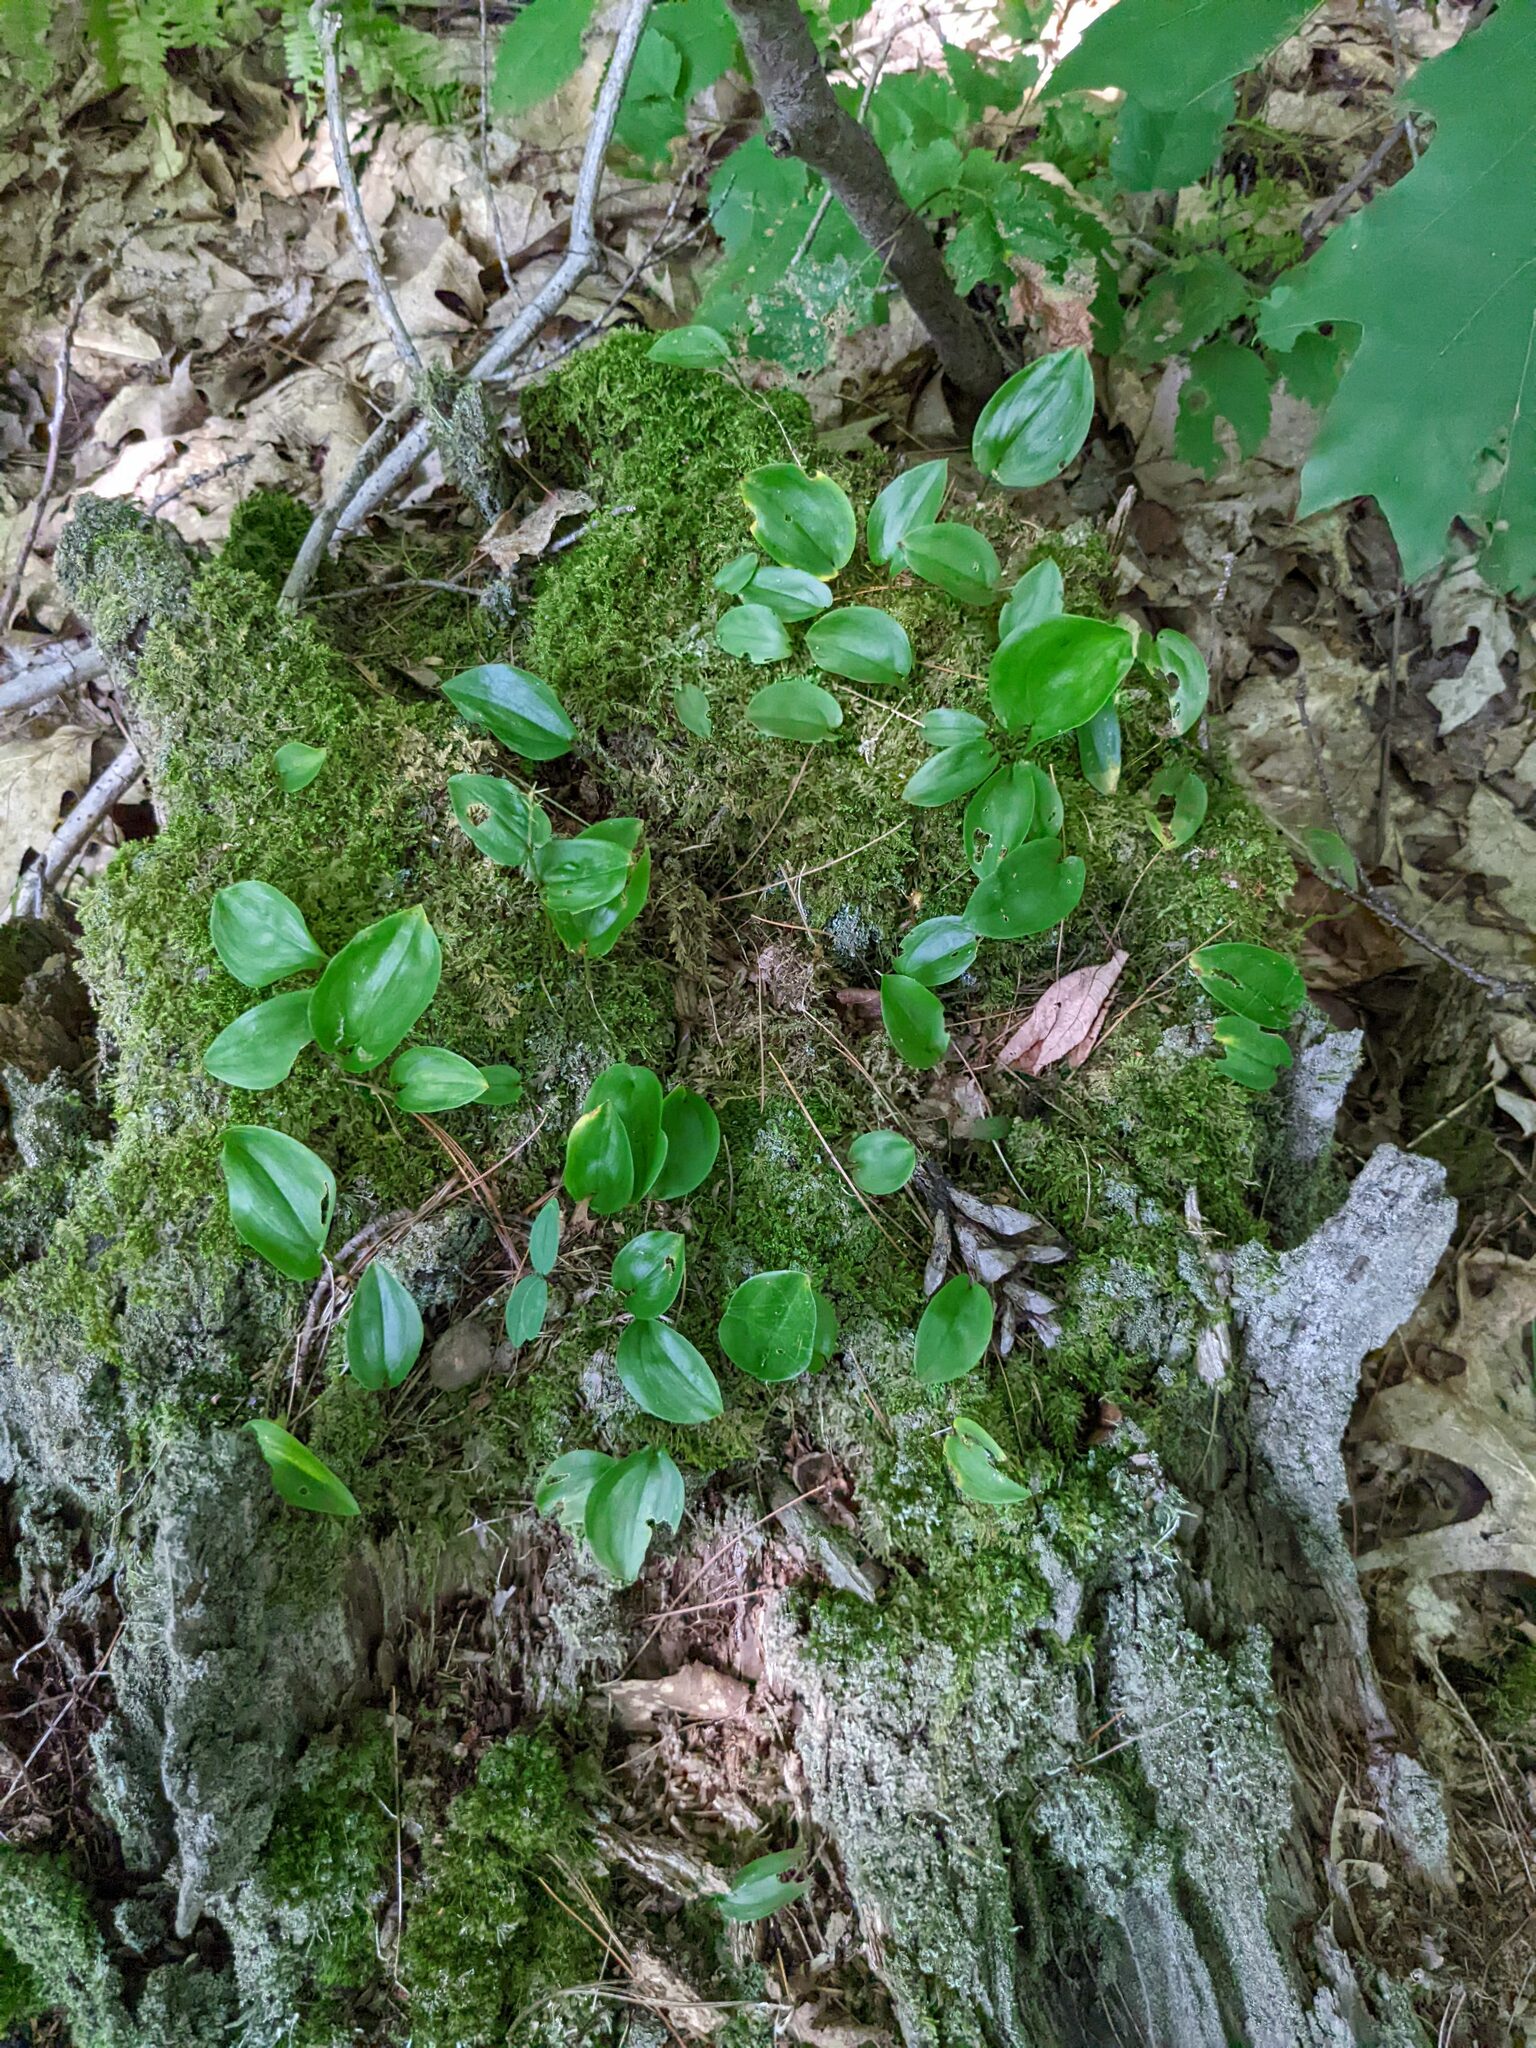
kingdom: Plantae
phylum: Tracheophyta
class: Liliopsida
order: Asparagales
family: Asparagaceae
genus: Maianthemum
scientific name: Maianthemum canadense
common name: False lily-of-the-valley
